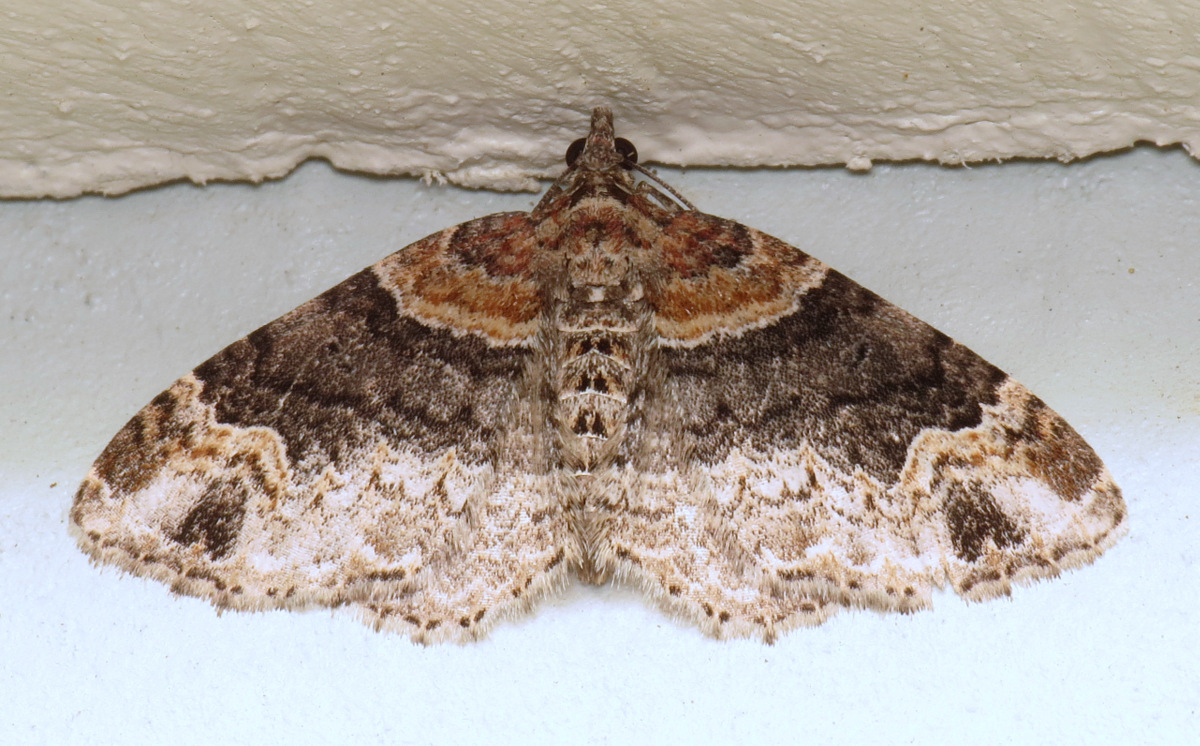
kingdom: Animalia
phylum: Arthropoda
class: Insecta
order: Lepidoptera
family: Geometridae
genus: Xanthorhoe
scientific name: Xanthorhoe ferrugata
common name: Dark-barred twin-spot carpet
